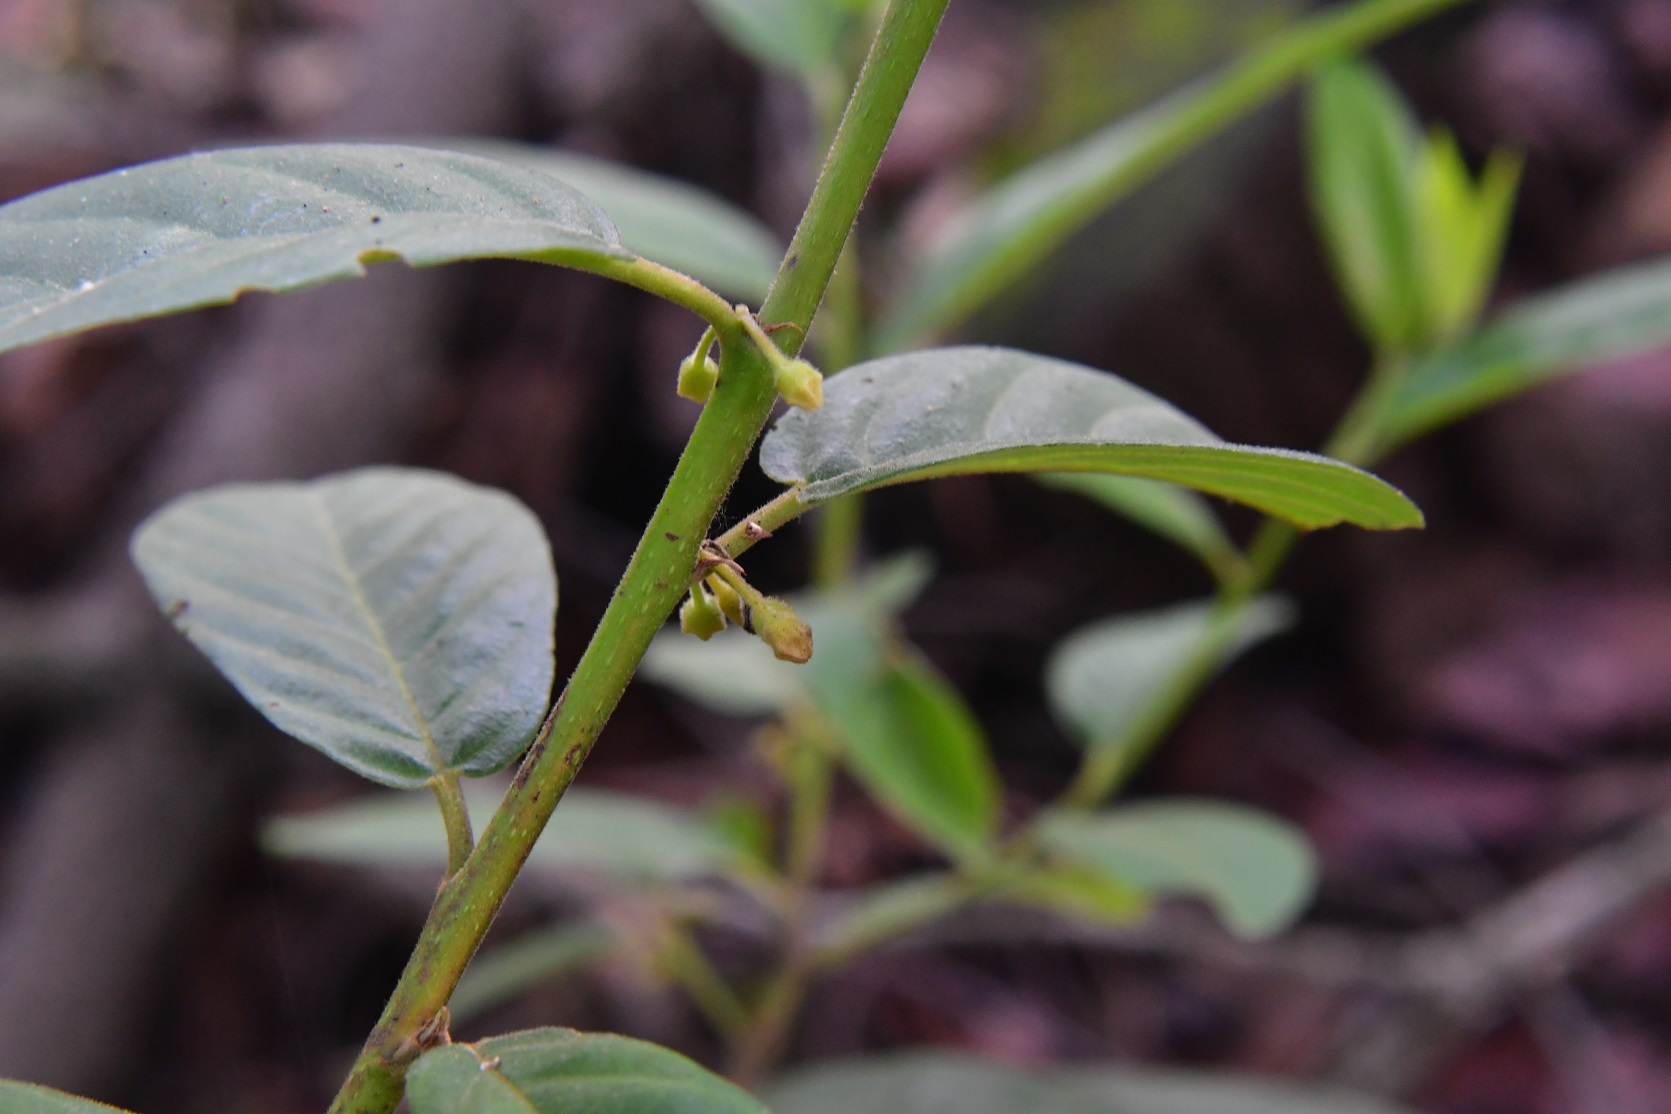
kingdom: Plantae
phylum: Tracheophyta
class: Magnoliopsida
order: Rosales
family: Rhamnaceae
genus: Frangula
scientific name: Frangula mucronata
